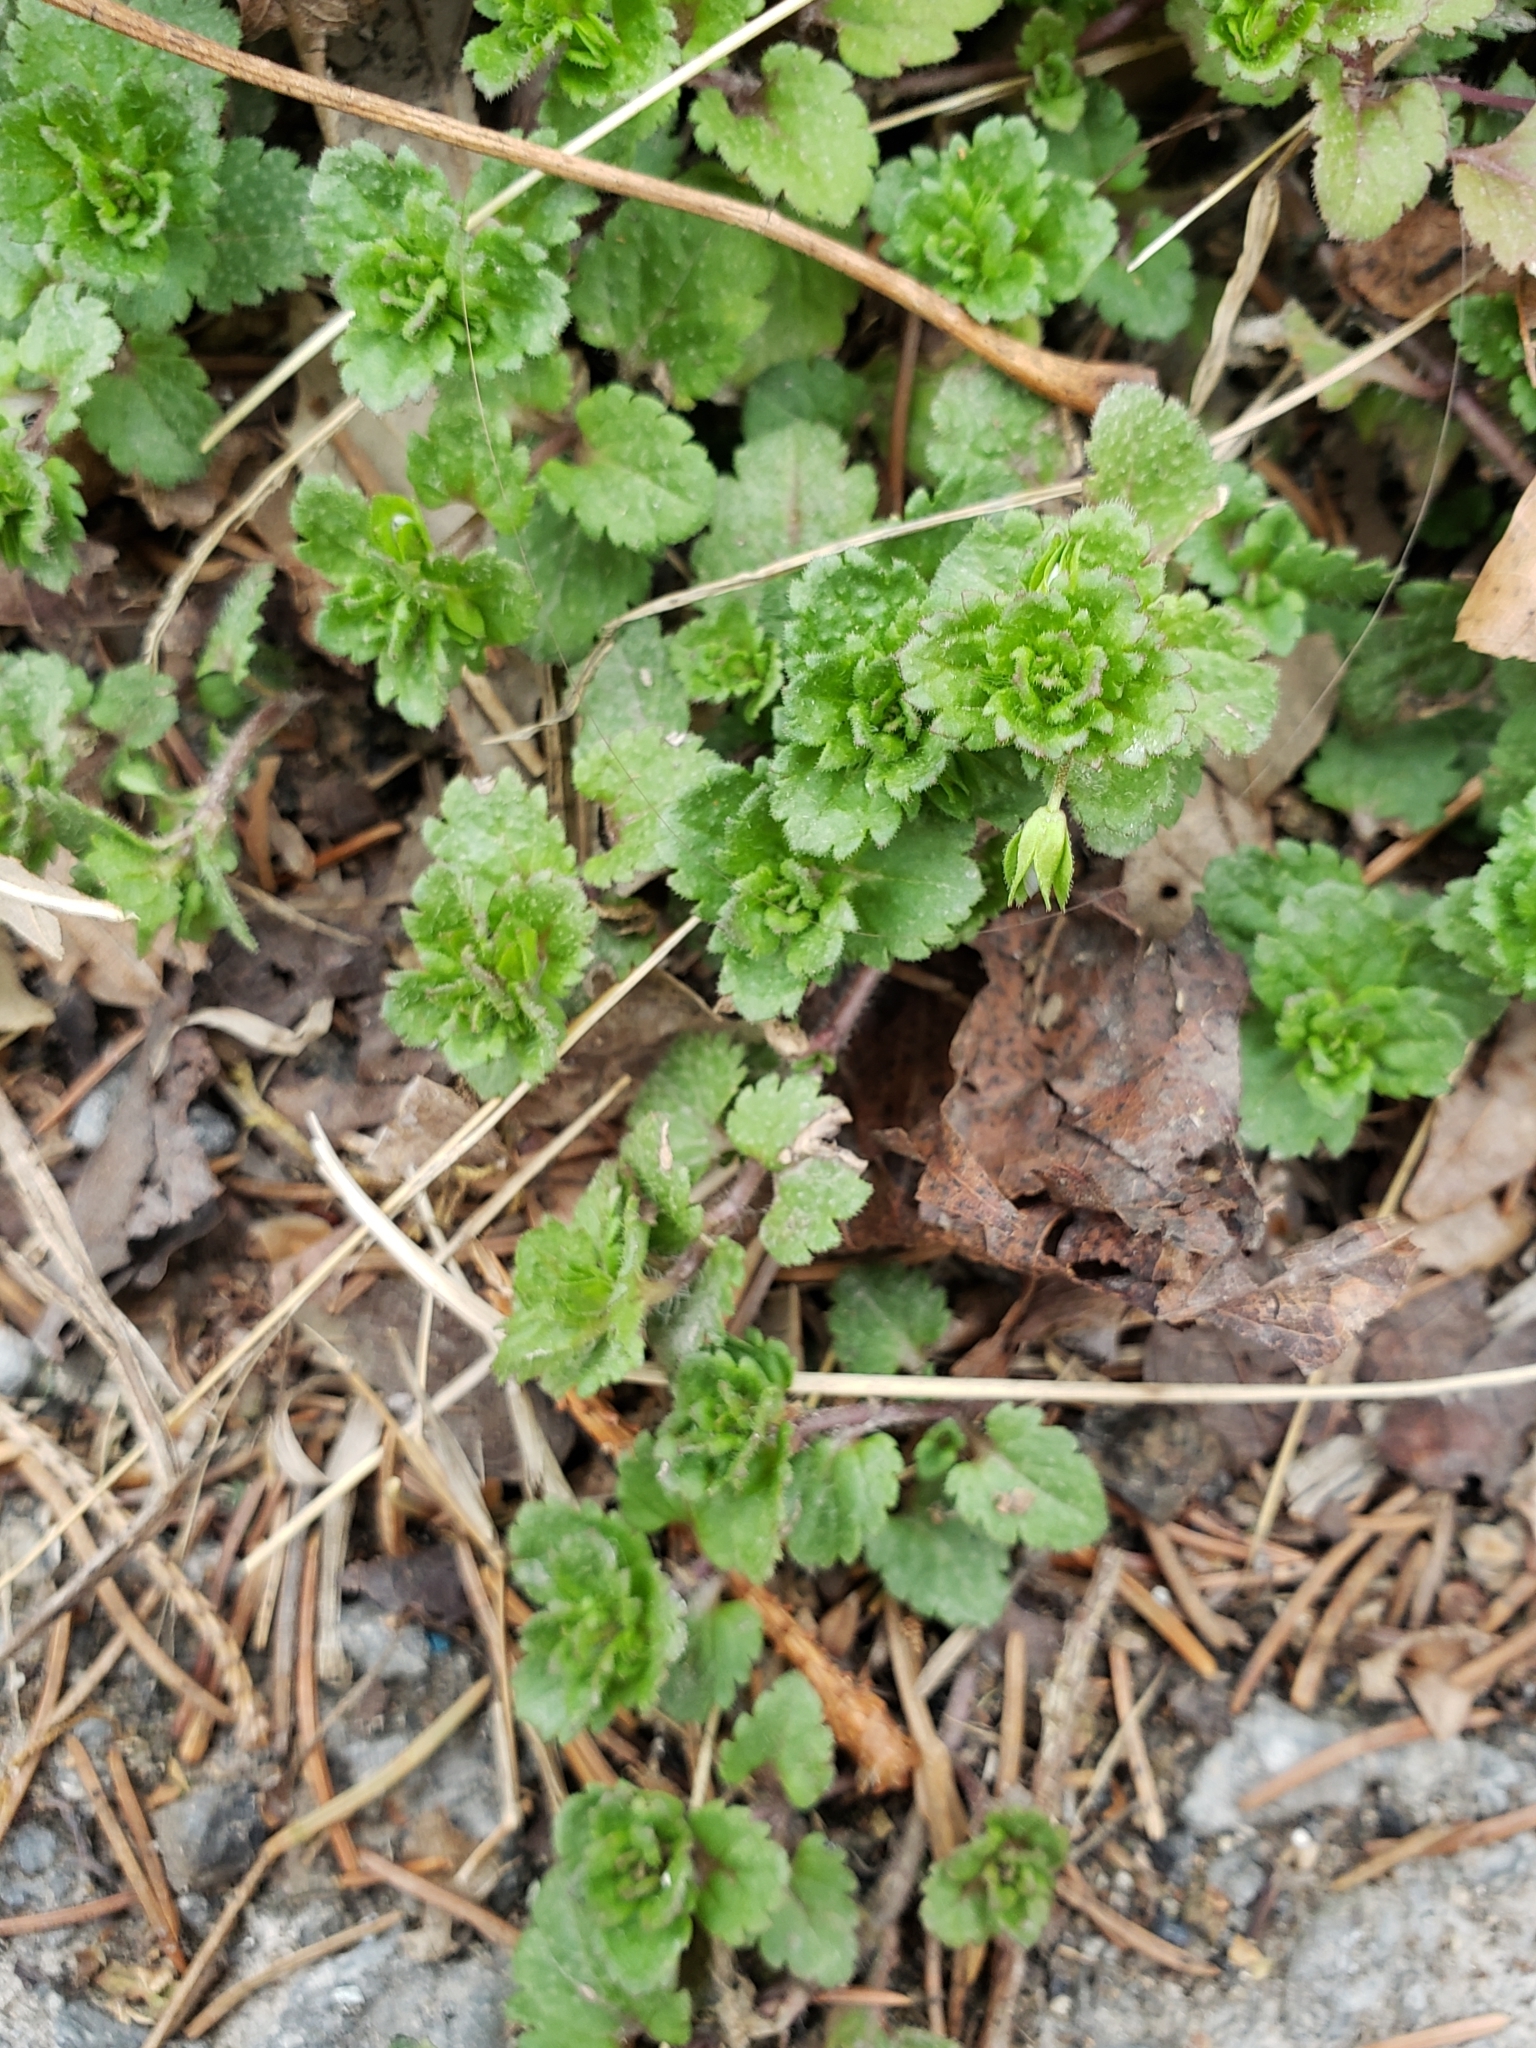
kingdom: Plantae
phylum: Tracheophyta
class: Magnoliopsida
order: Lamiales
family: Plantaginaceae
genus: Veronica
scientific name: Veronica persica
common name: Common field-speedwell
